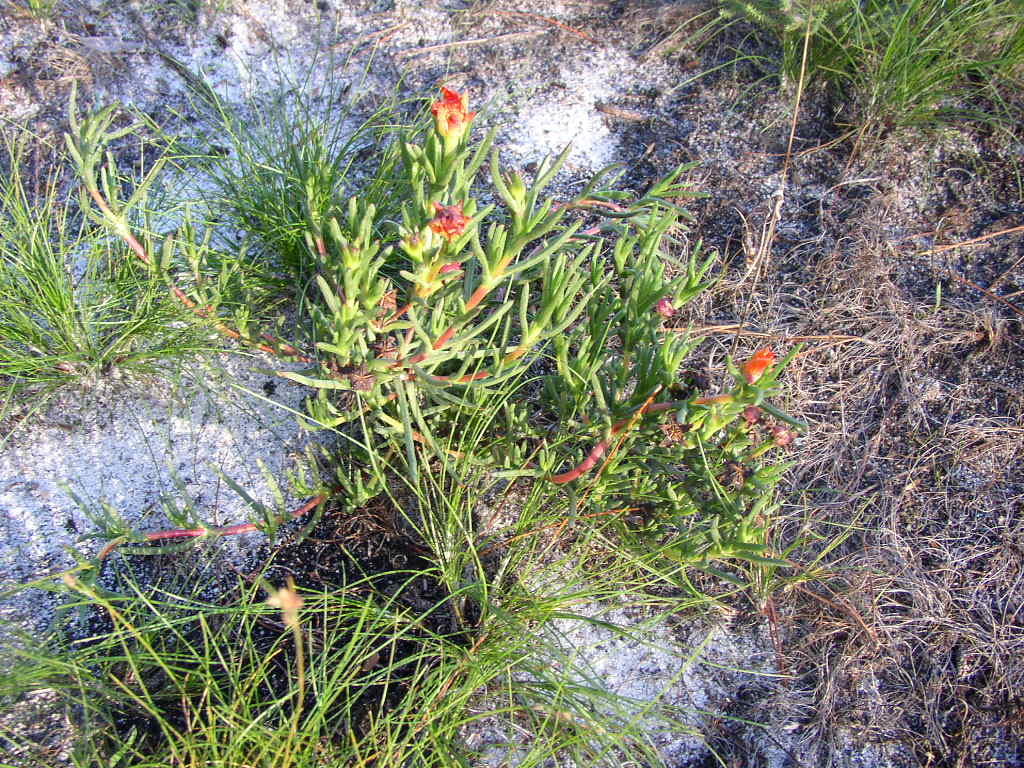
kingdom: Plantae
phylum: Tracheophyta
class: Magnoliopsida
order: Caryophyllales
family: Aizoaceae
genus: Lampranthus
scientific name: Lampranthus bicolor
